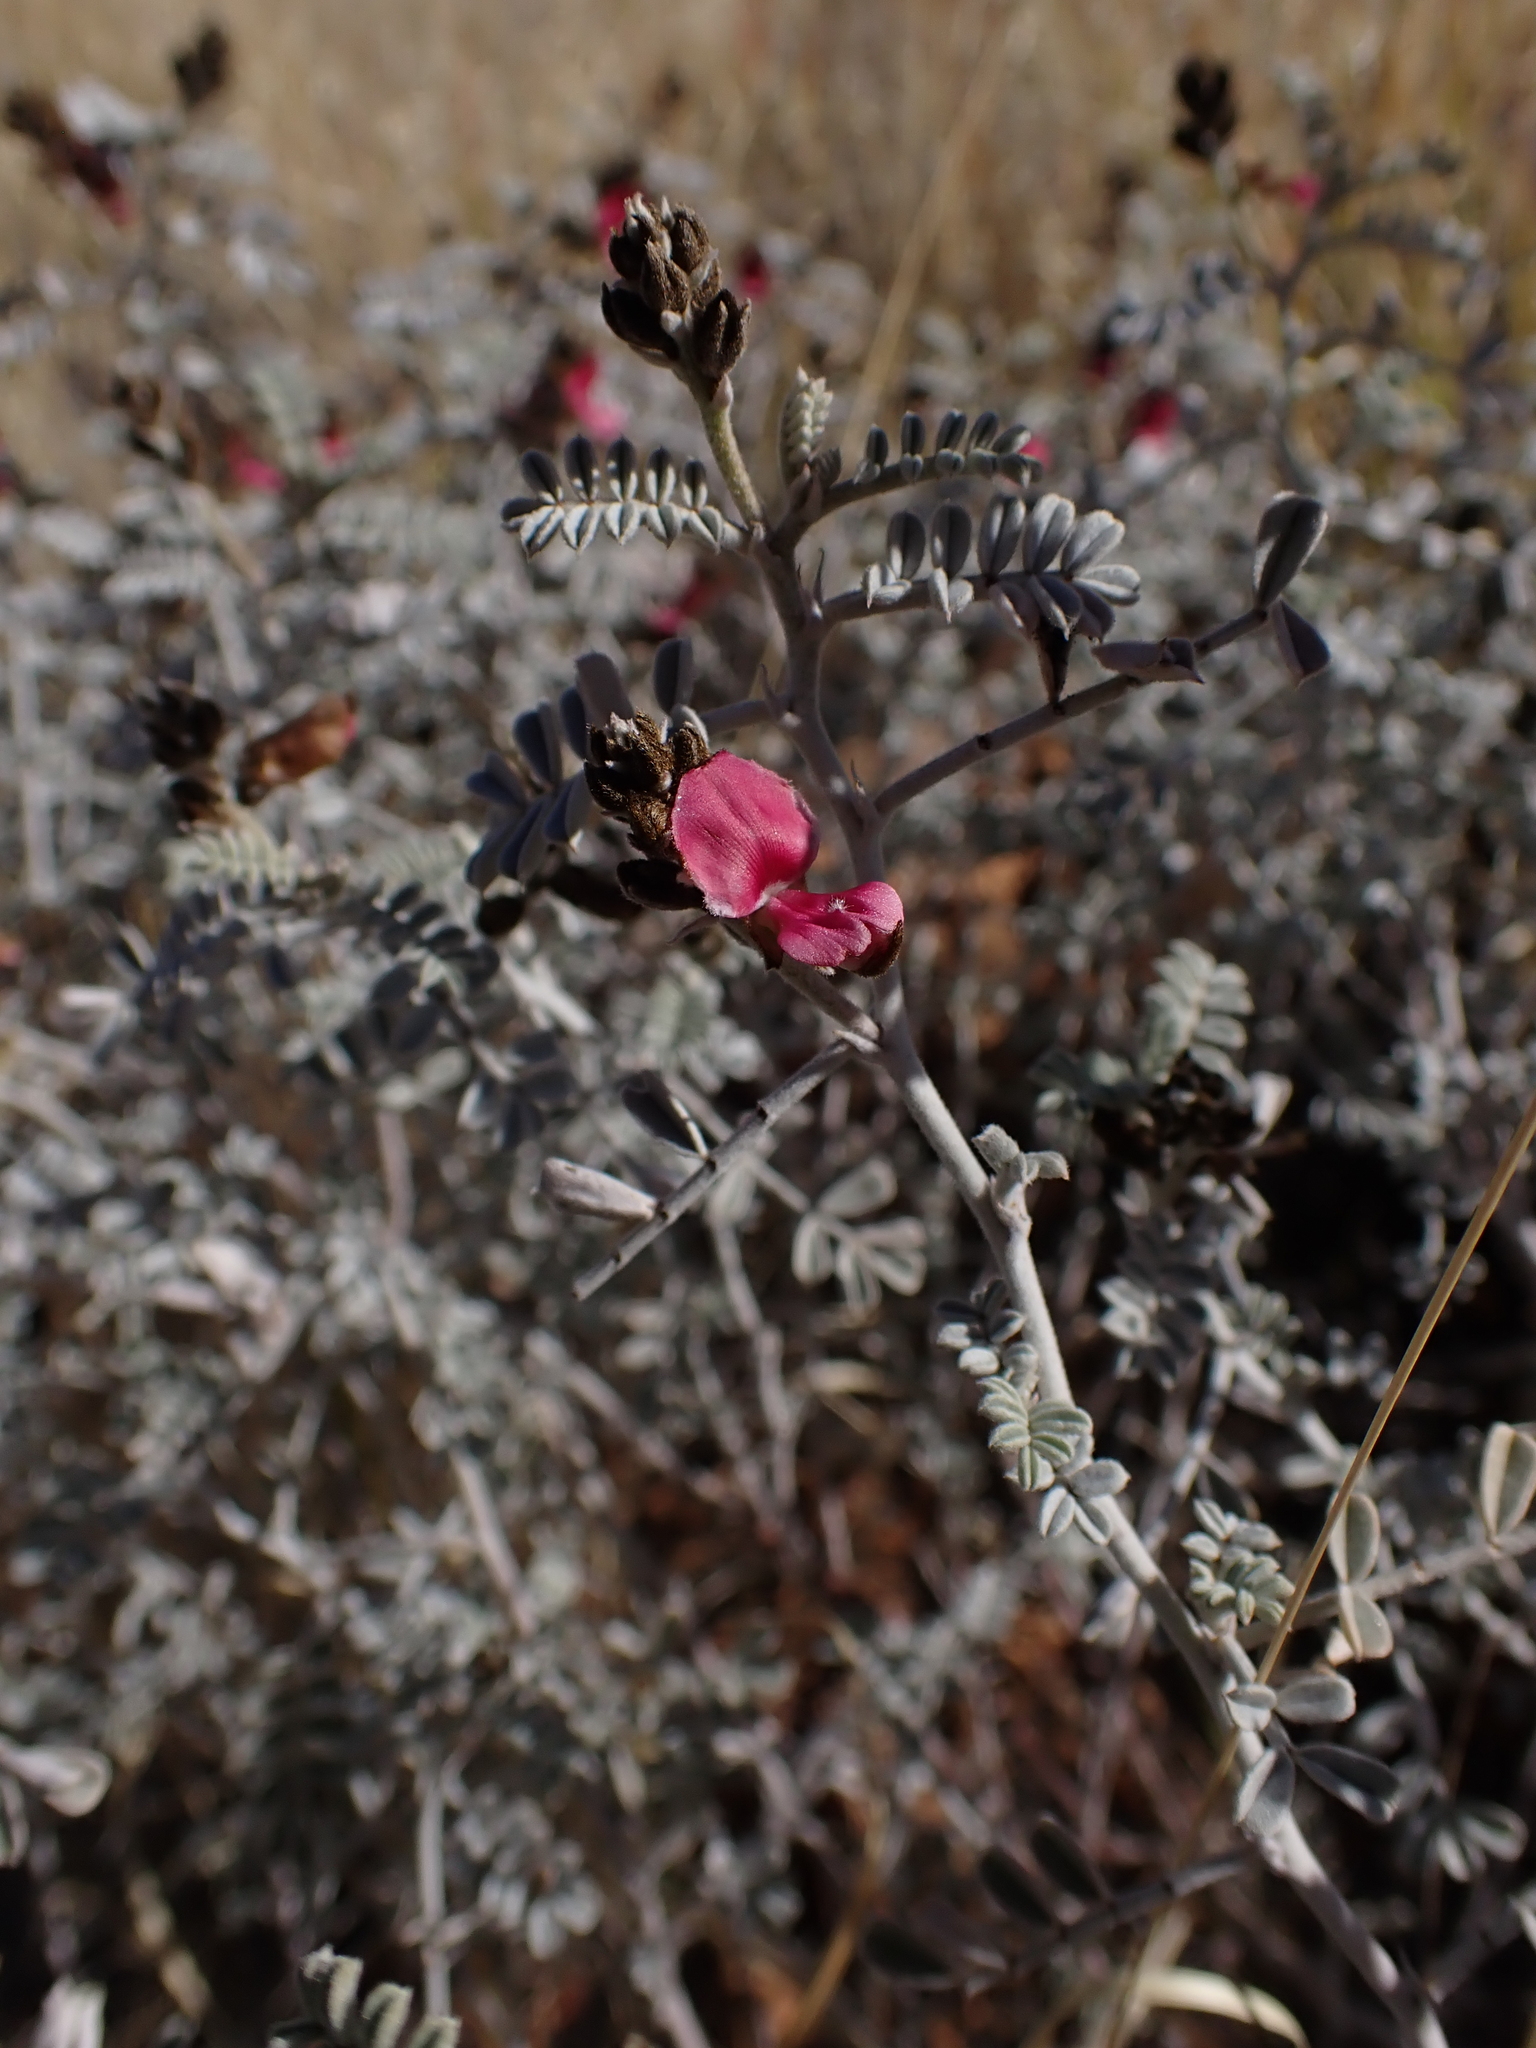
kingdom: Plantae
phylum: Tracheophyta
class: Magnoliopsida
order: Fabales
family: Fabaceae
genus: Indigofera
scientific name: Indigofera leucotricha
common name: Silver indigo
